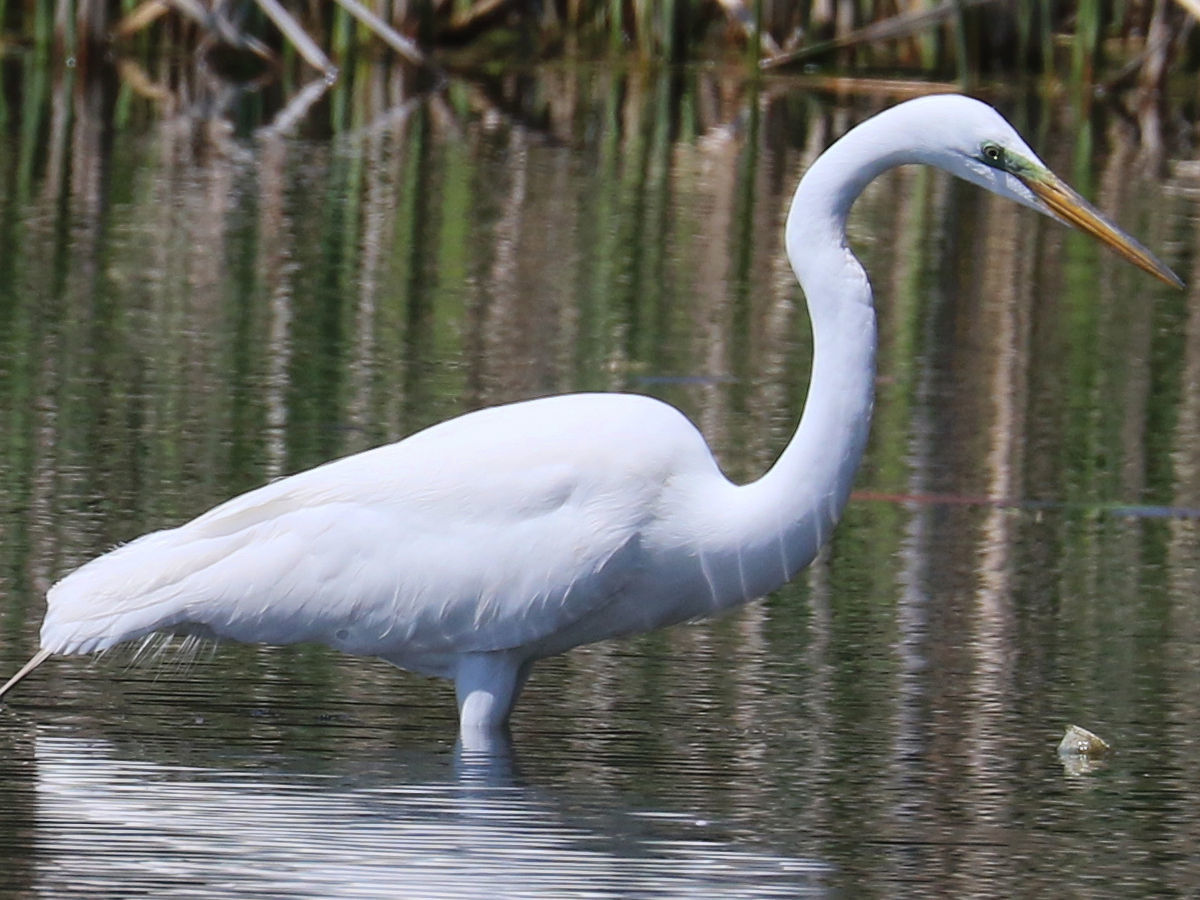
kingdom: Animalia
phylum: Chordata
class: Aves
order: Pelecaniformes
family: Ardeidae
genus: Ardea
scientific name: Ardea alba
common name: Great egret
